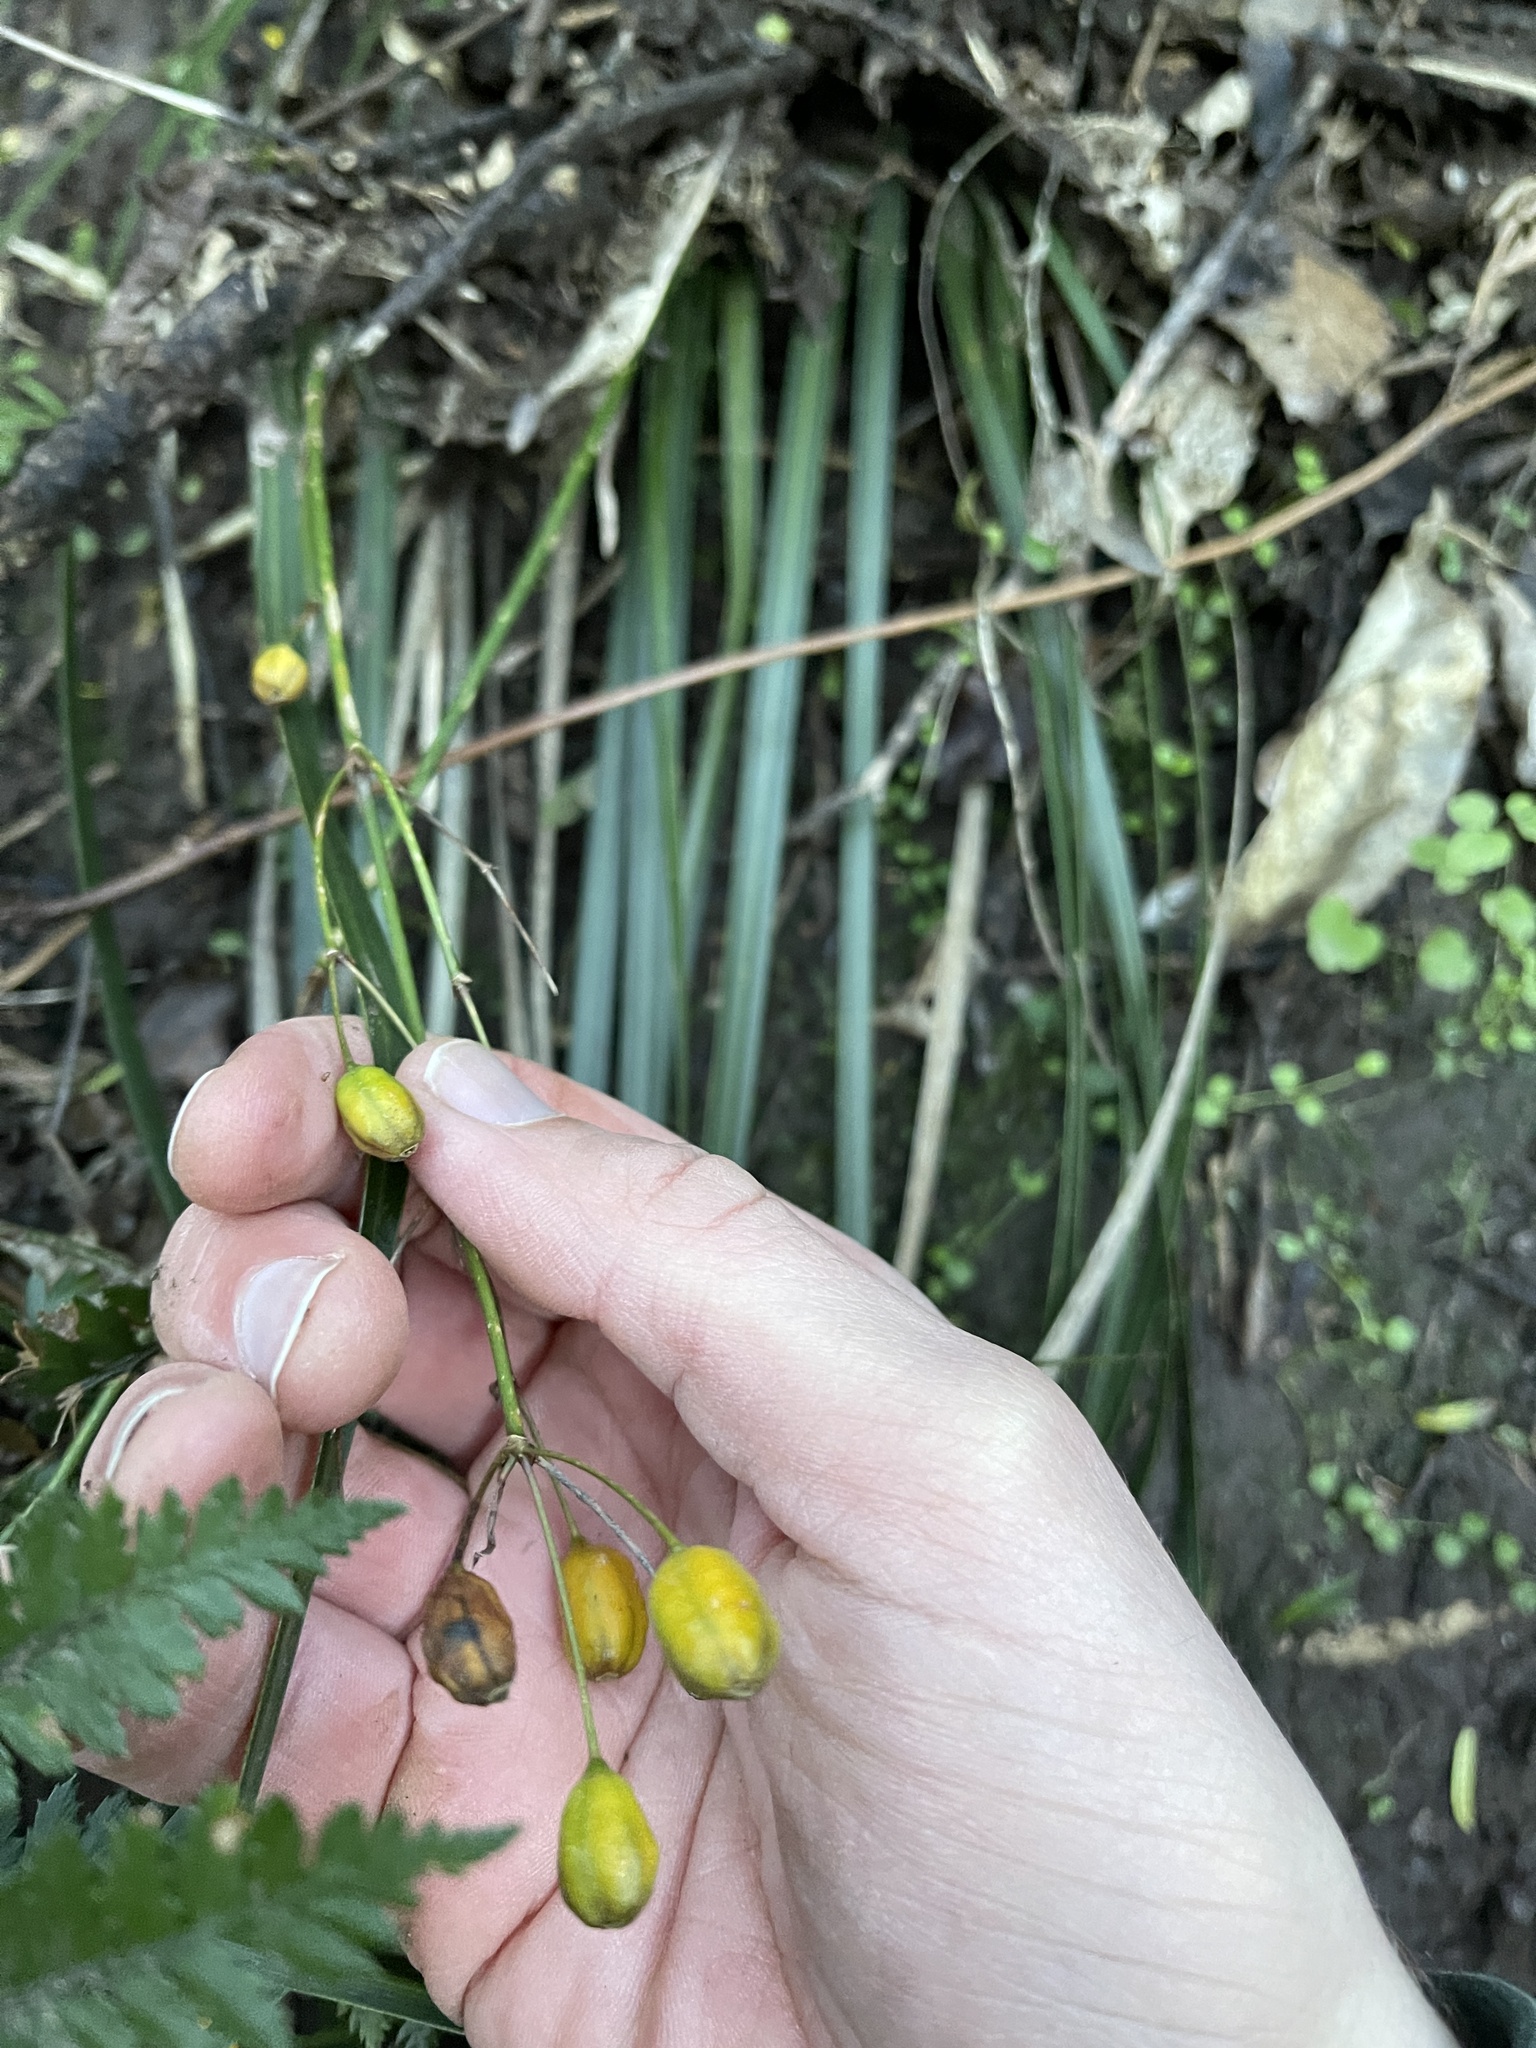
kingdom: Plantae
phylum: Tracheophyta
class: Liliopsida
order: Asparagales
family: Iridaceae
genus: Libertia
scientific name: Libertia ixioides
